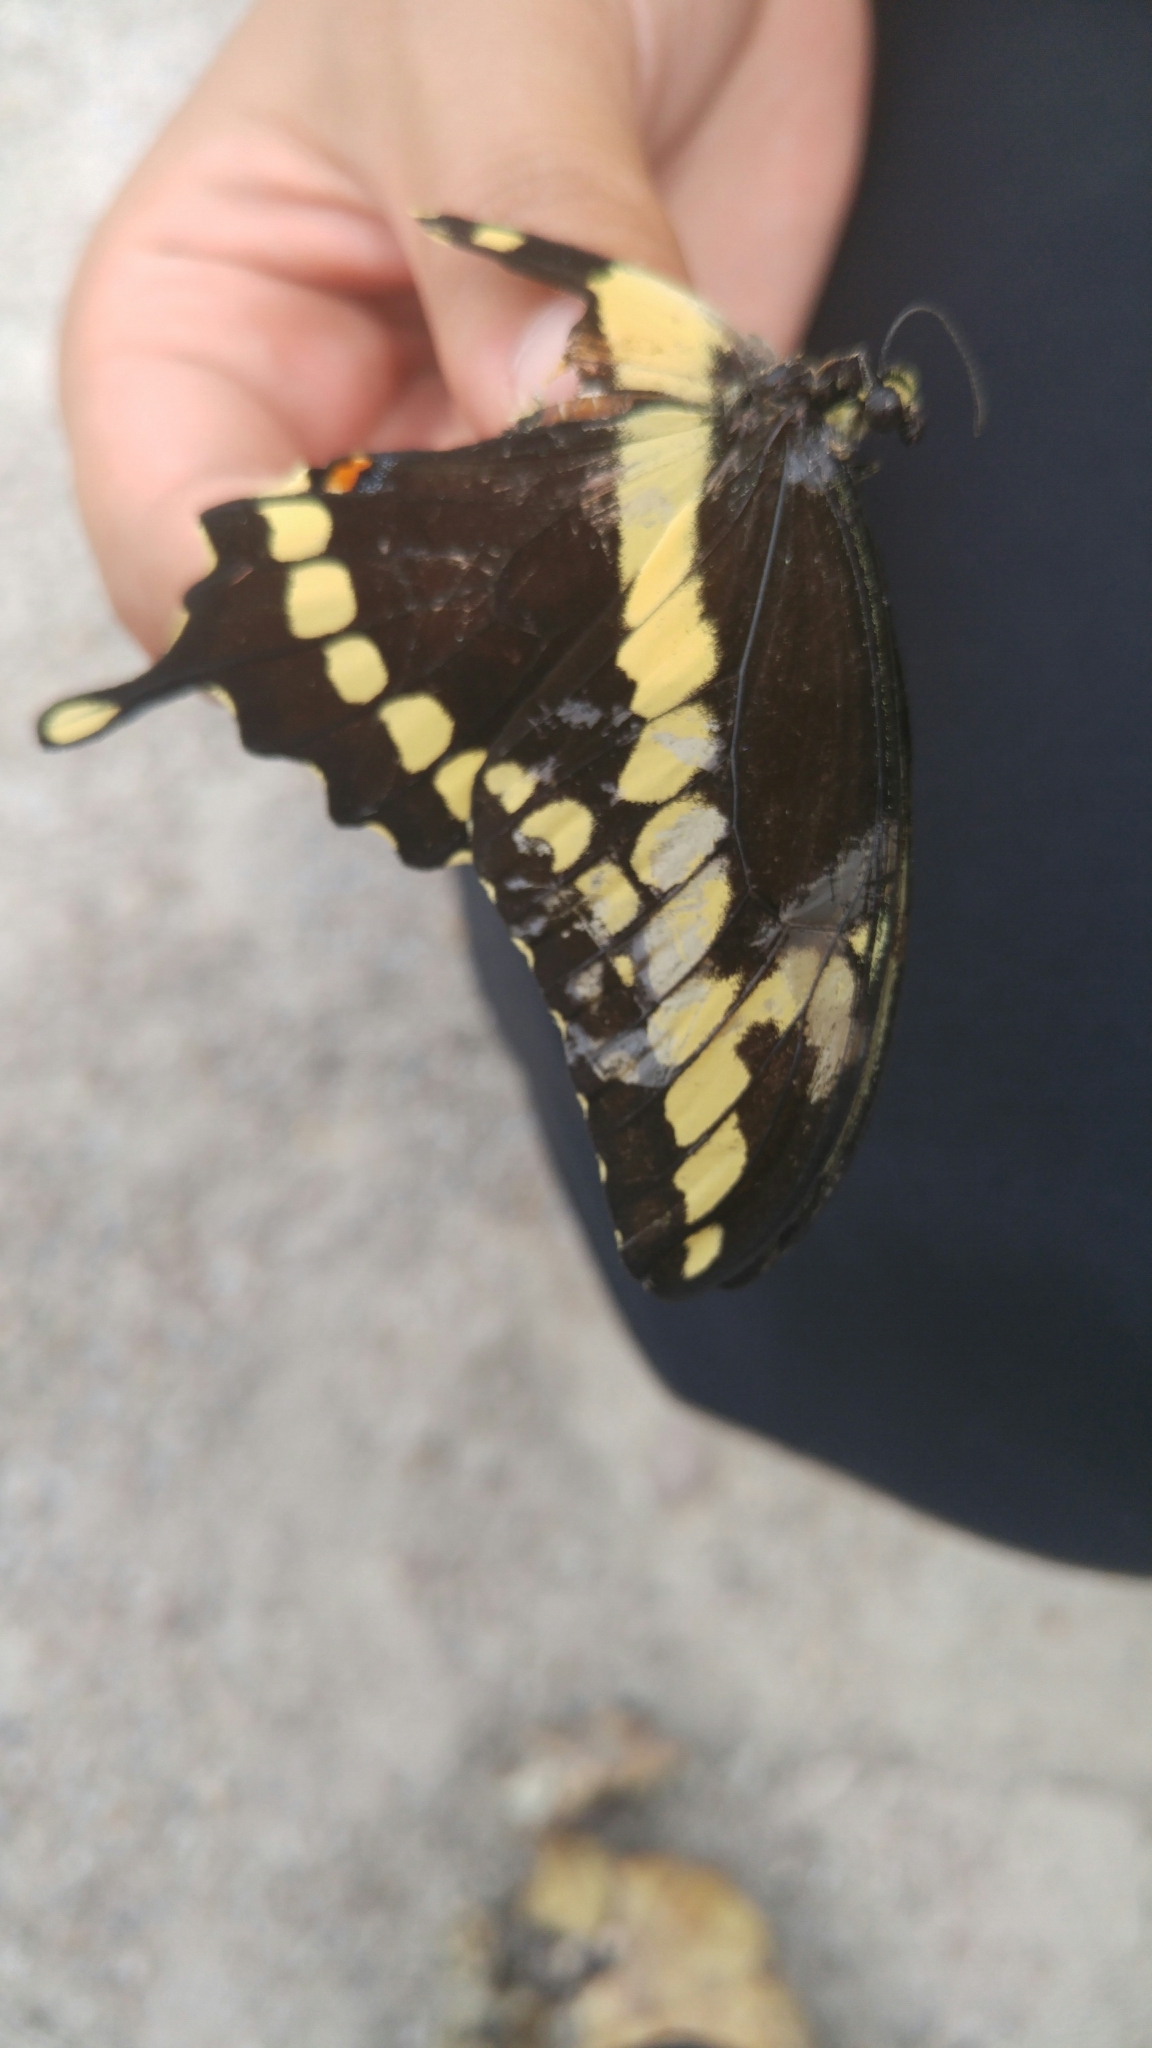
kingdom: Animalia
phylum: Arthropoda
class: Insecta
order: Lepidoptera
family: Papilionidae
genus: Papilio
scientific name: Papilio cresphontes
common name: Giant swallowtail
